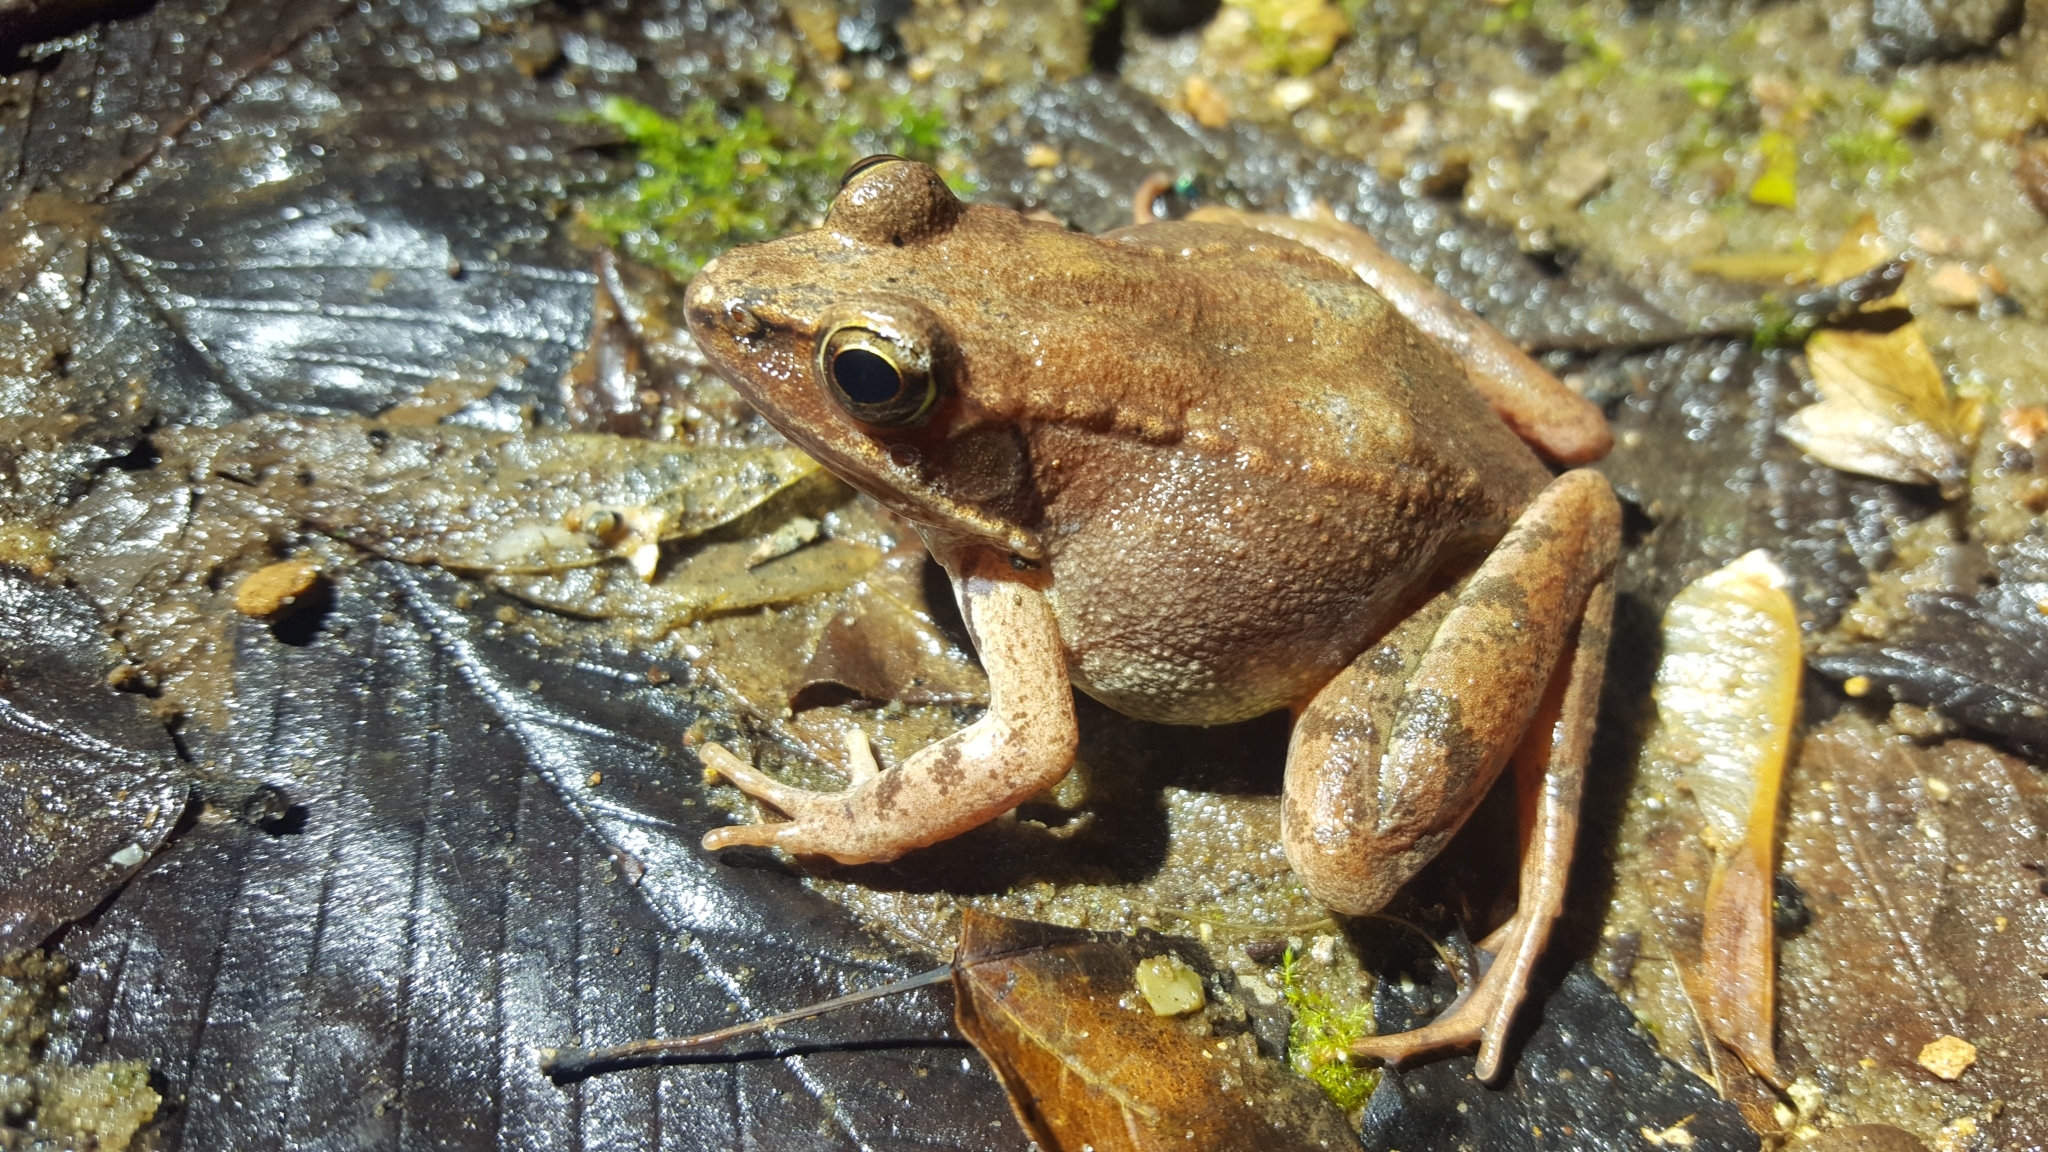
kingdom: Animalia
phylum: Chordata
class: Amphibia
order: Anura
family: Ranidae
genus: Lithobates
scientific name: Lithobates sylvaticus
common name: Wood frog
